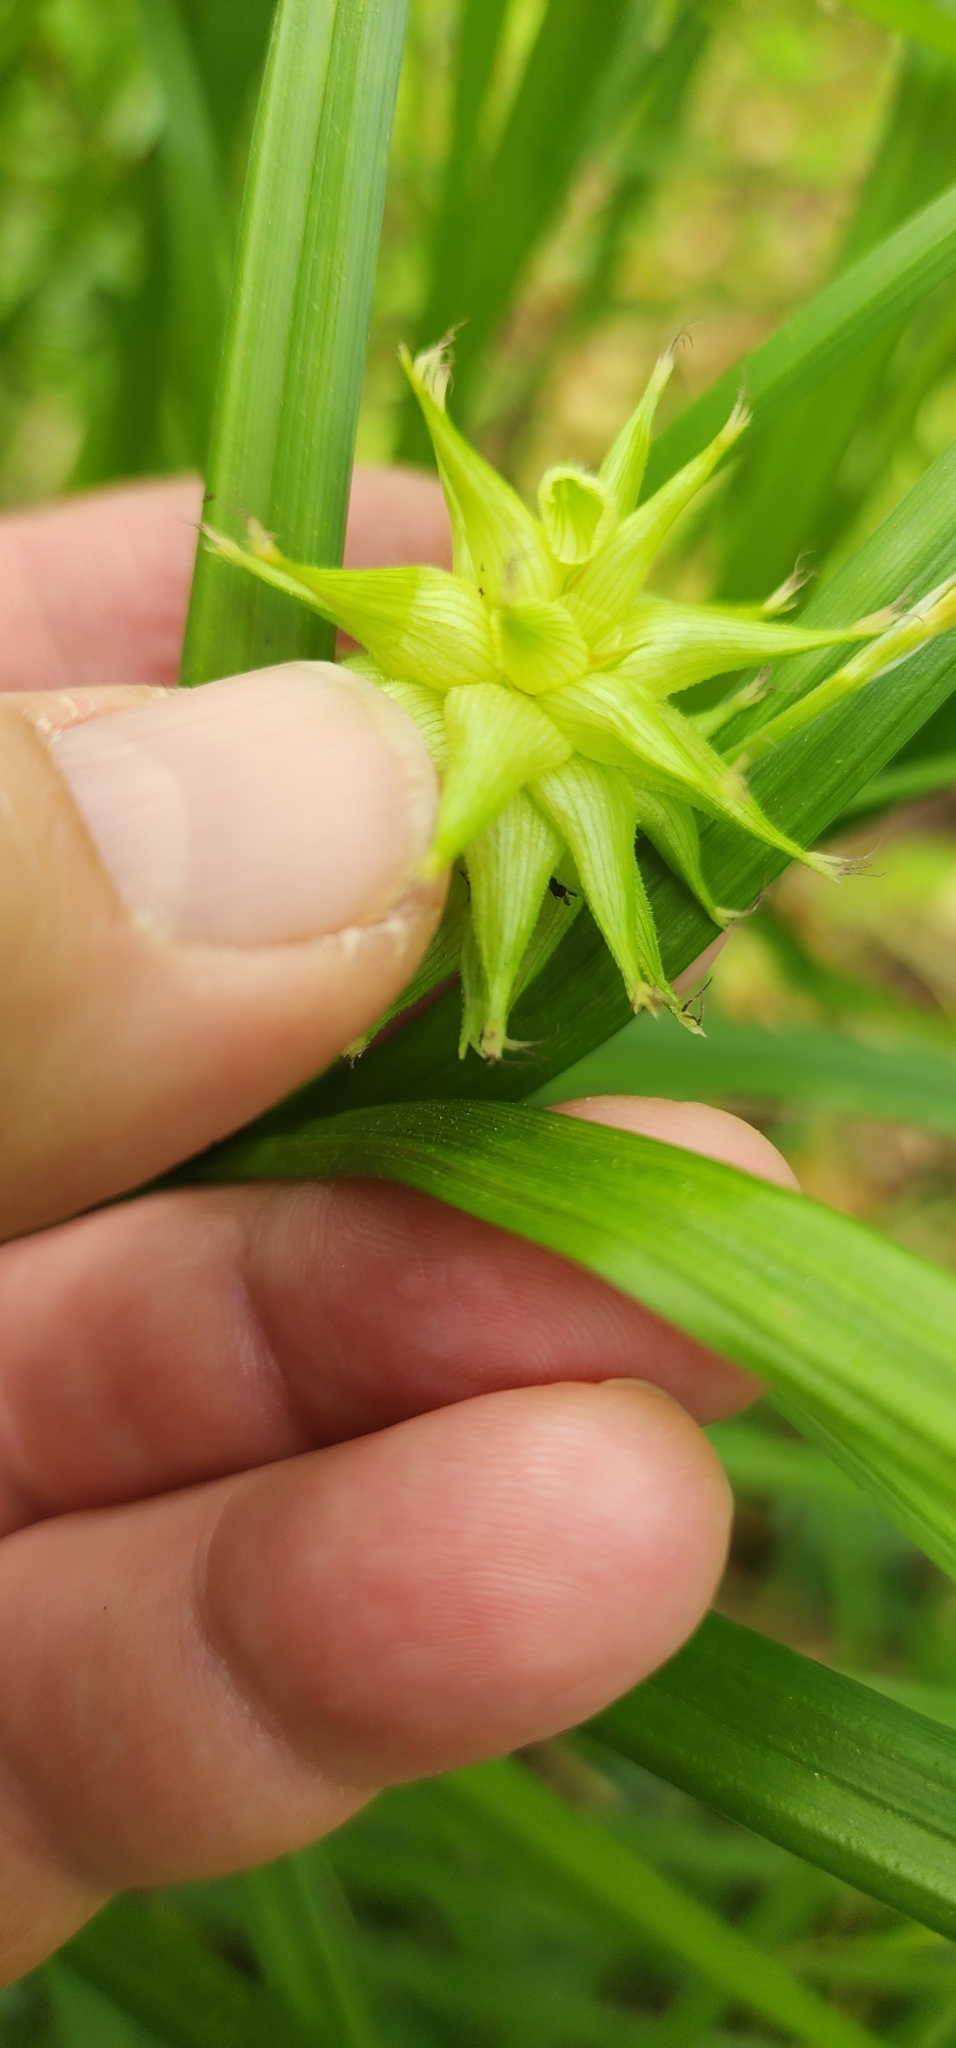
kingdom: Plantae
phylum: Tracheophyta
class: Liliopsida
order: Poales
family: Cyperaceae
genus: Carex
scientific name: Carex grayi
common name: Asa gray's sedge
